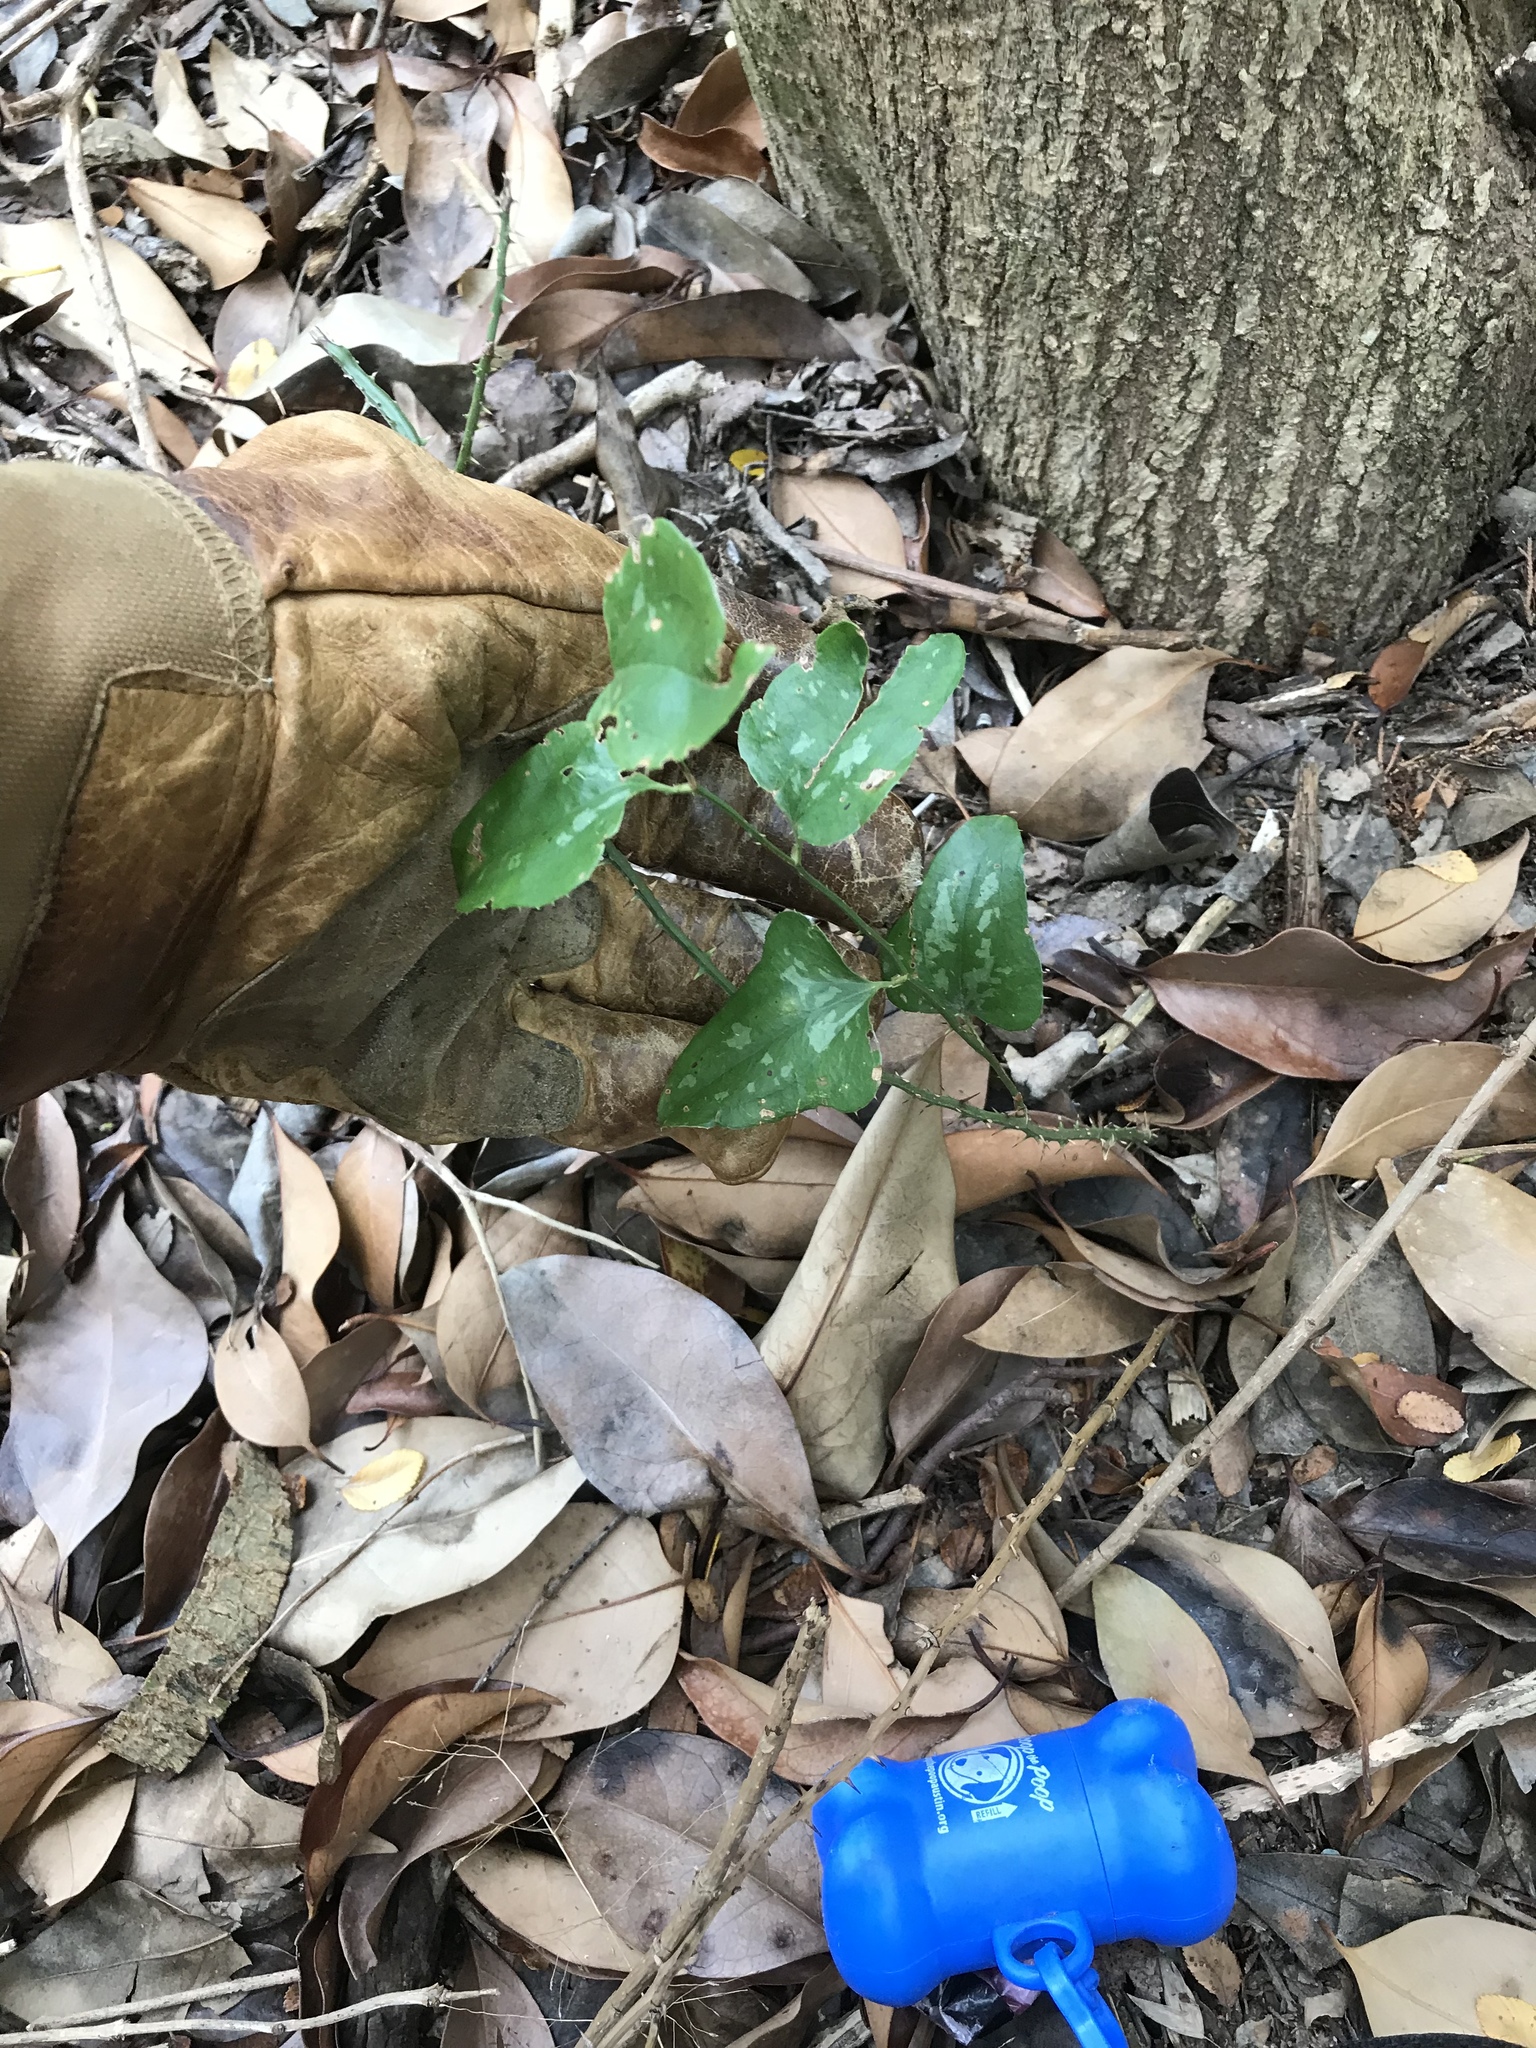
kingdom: Plantae
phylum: Tracheophyta
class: Liliopsida
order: Liliales
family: Smilacaceae
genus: Smilax
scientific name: Smilax bona-nox
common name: Catbrier
